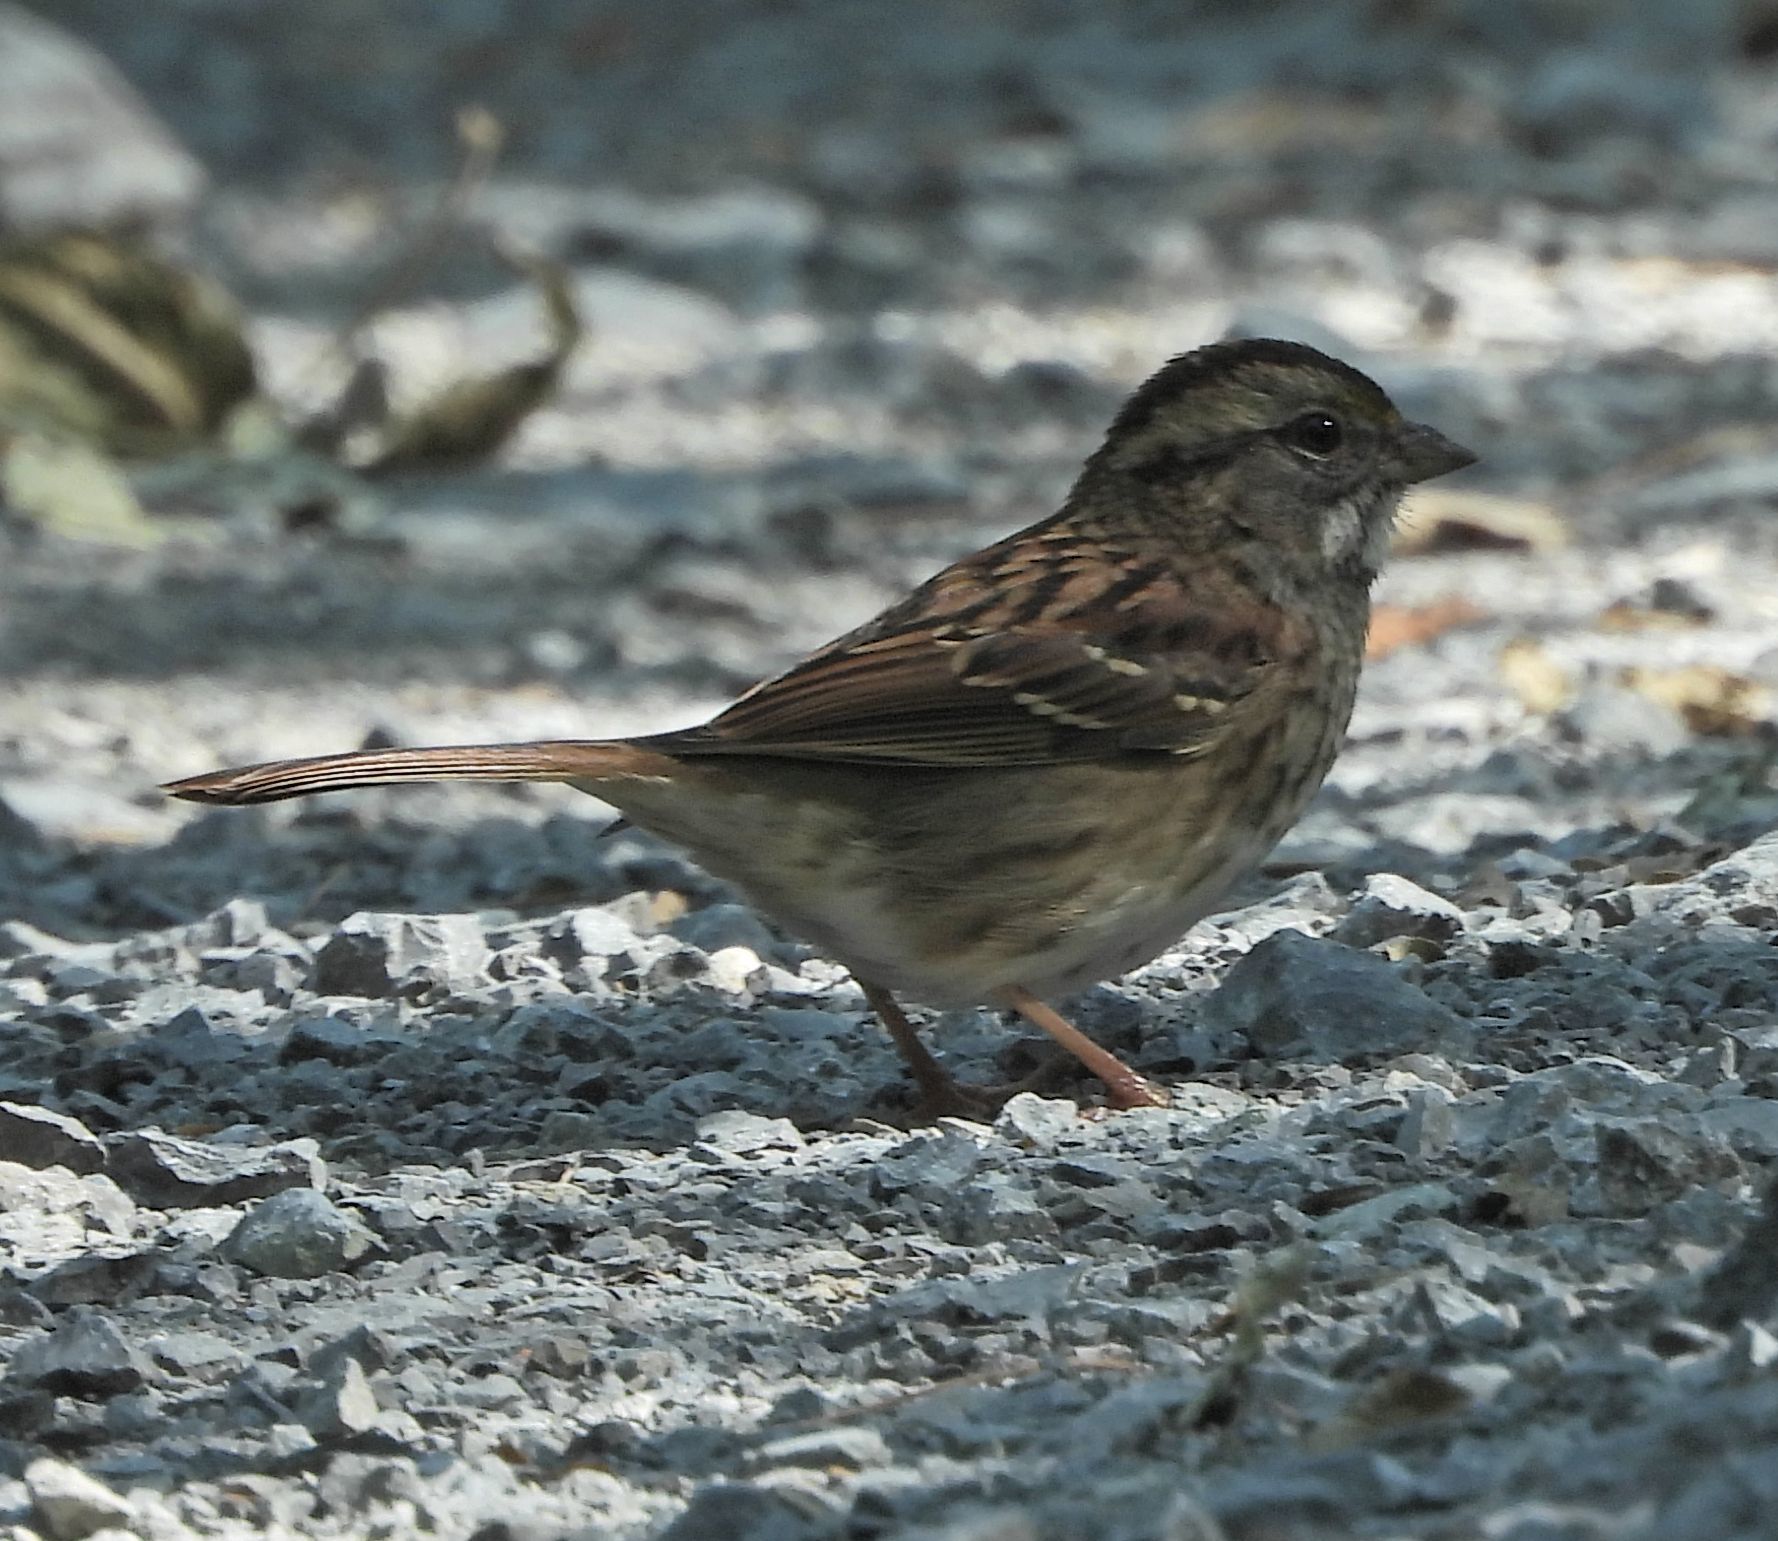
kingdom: Animalia
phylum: Chordata
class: Aves
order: Passeriformes
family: Passerellidae
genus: Zonotrichia
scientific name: Zonotrichia albicollis
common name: White-throated sparrow
